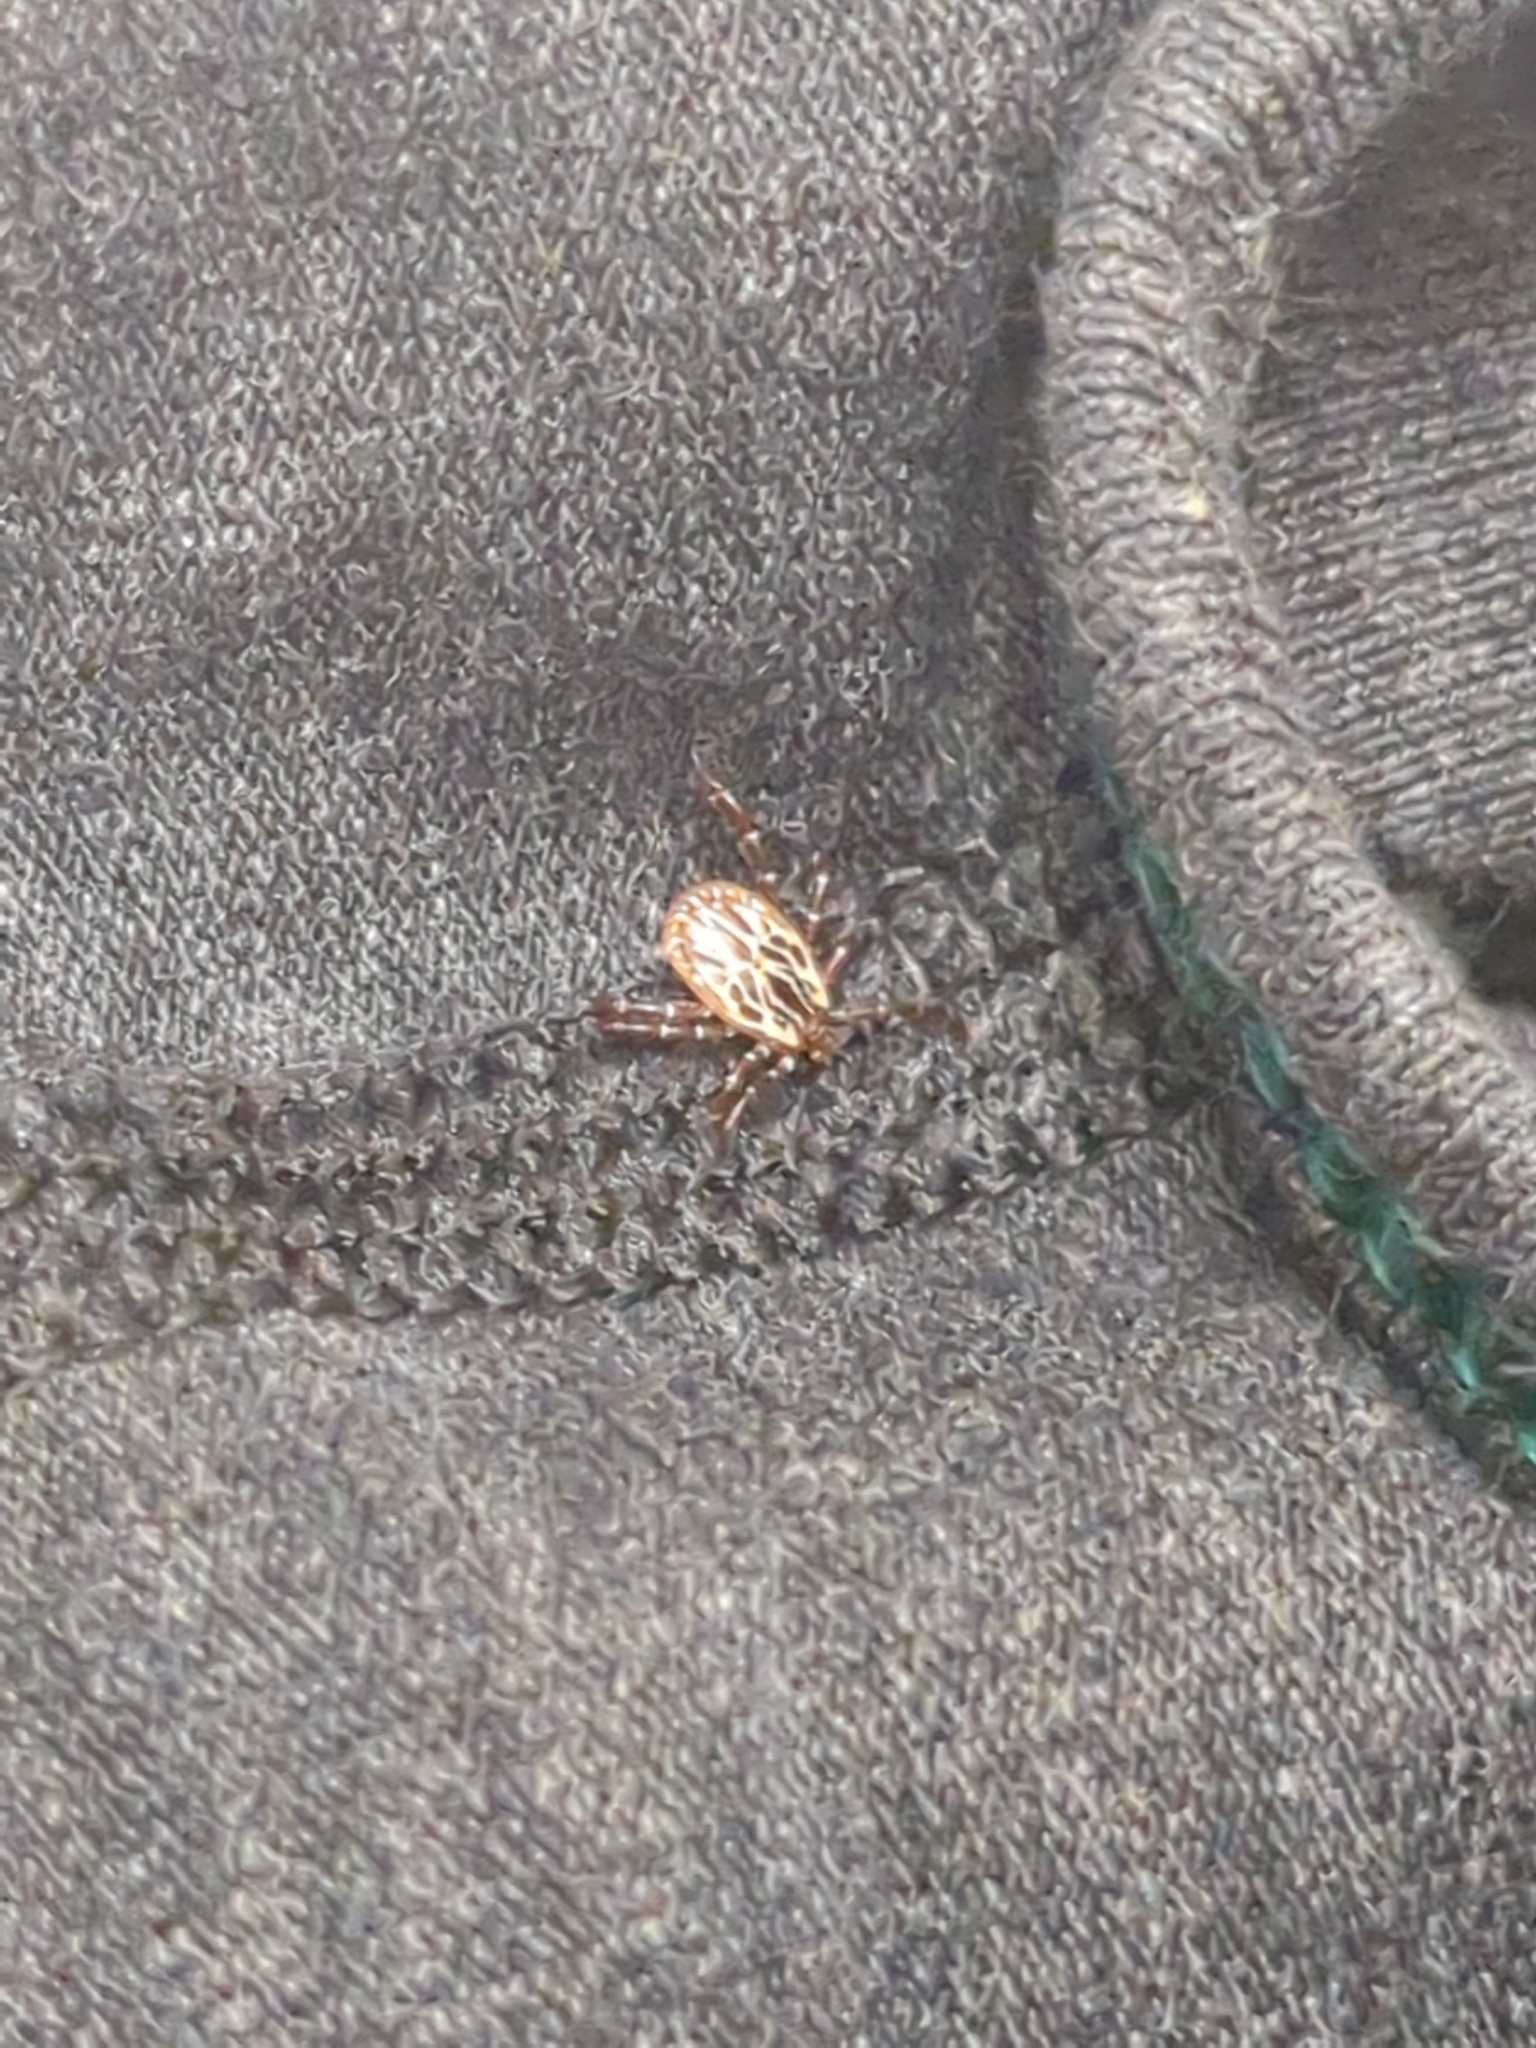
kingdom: Animalia
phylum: Arthropoda
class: Arachnida
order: Ixodida
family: Ixodidae
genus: Amblyomma
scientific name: Amblyomma maculatum
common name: Gulf coast tick
